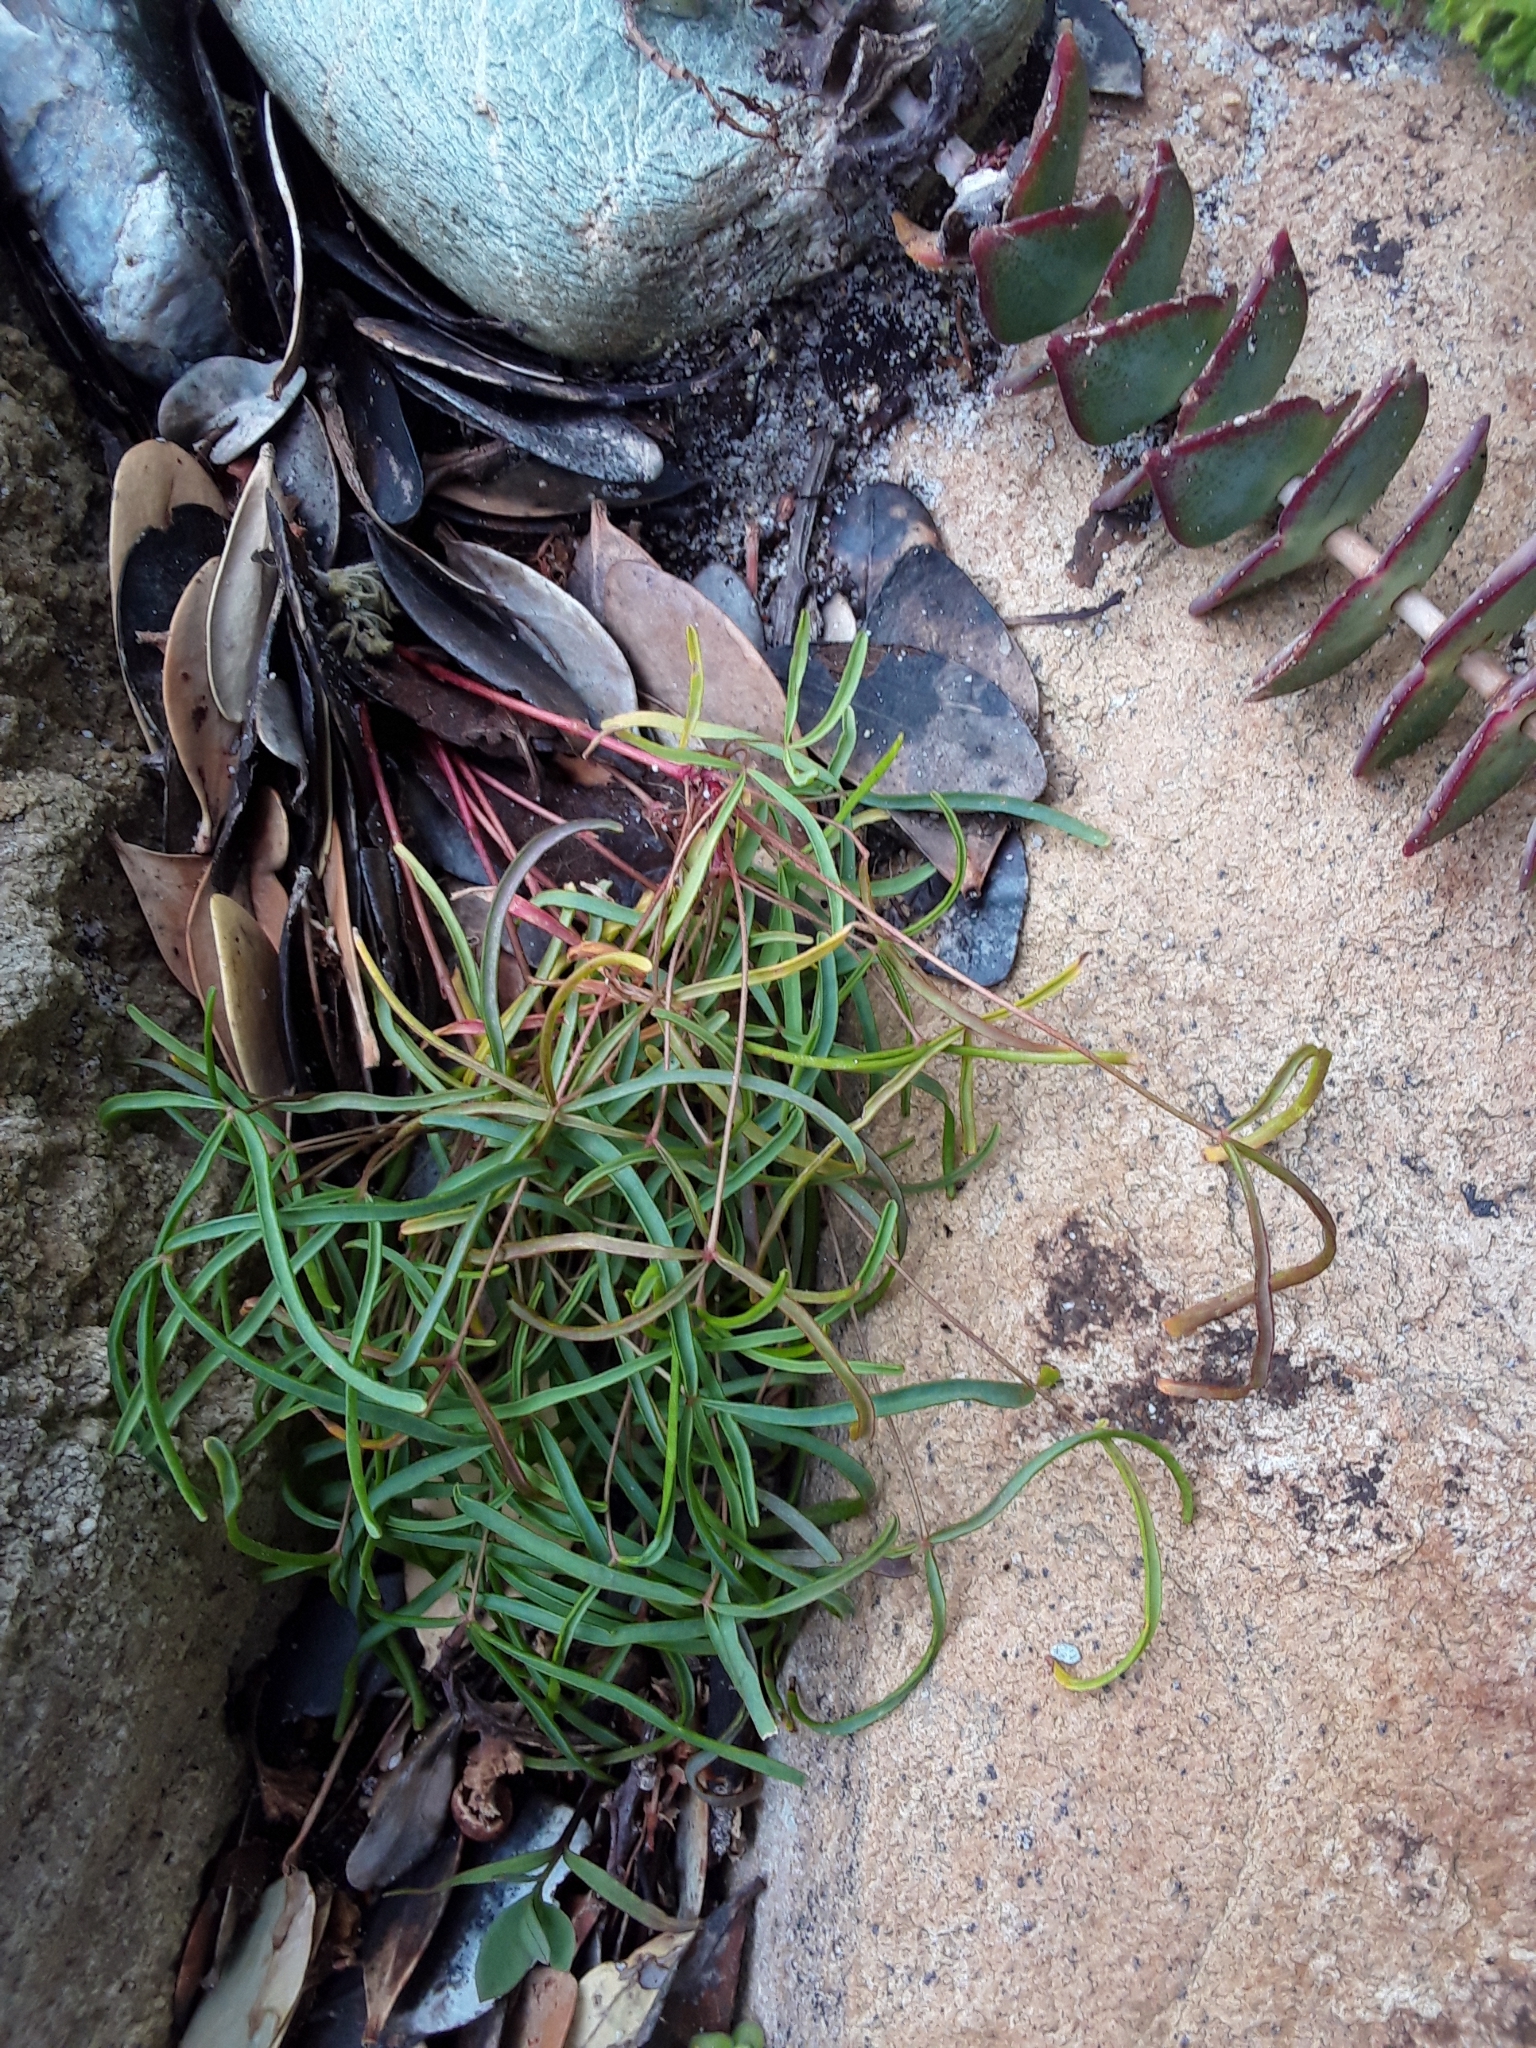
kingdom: Plantae
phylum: Tracheophyta
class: Magnoliopsida
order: Oxalidales
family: Oxalidaceae
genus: Oxalis
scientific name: Oxalis polyphylla
